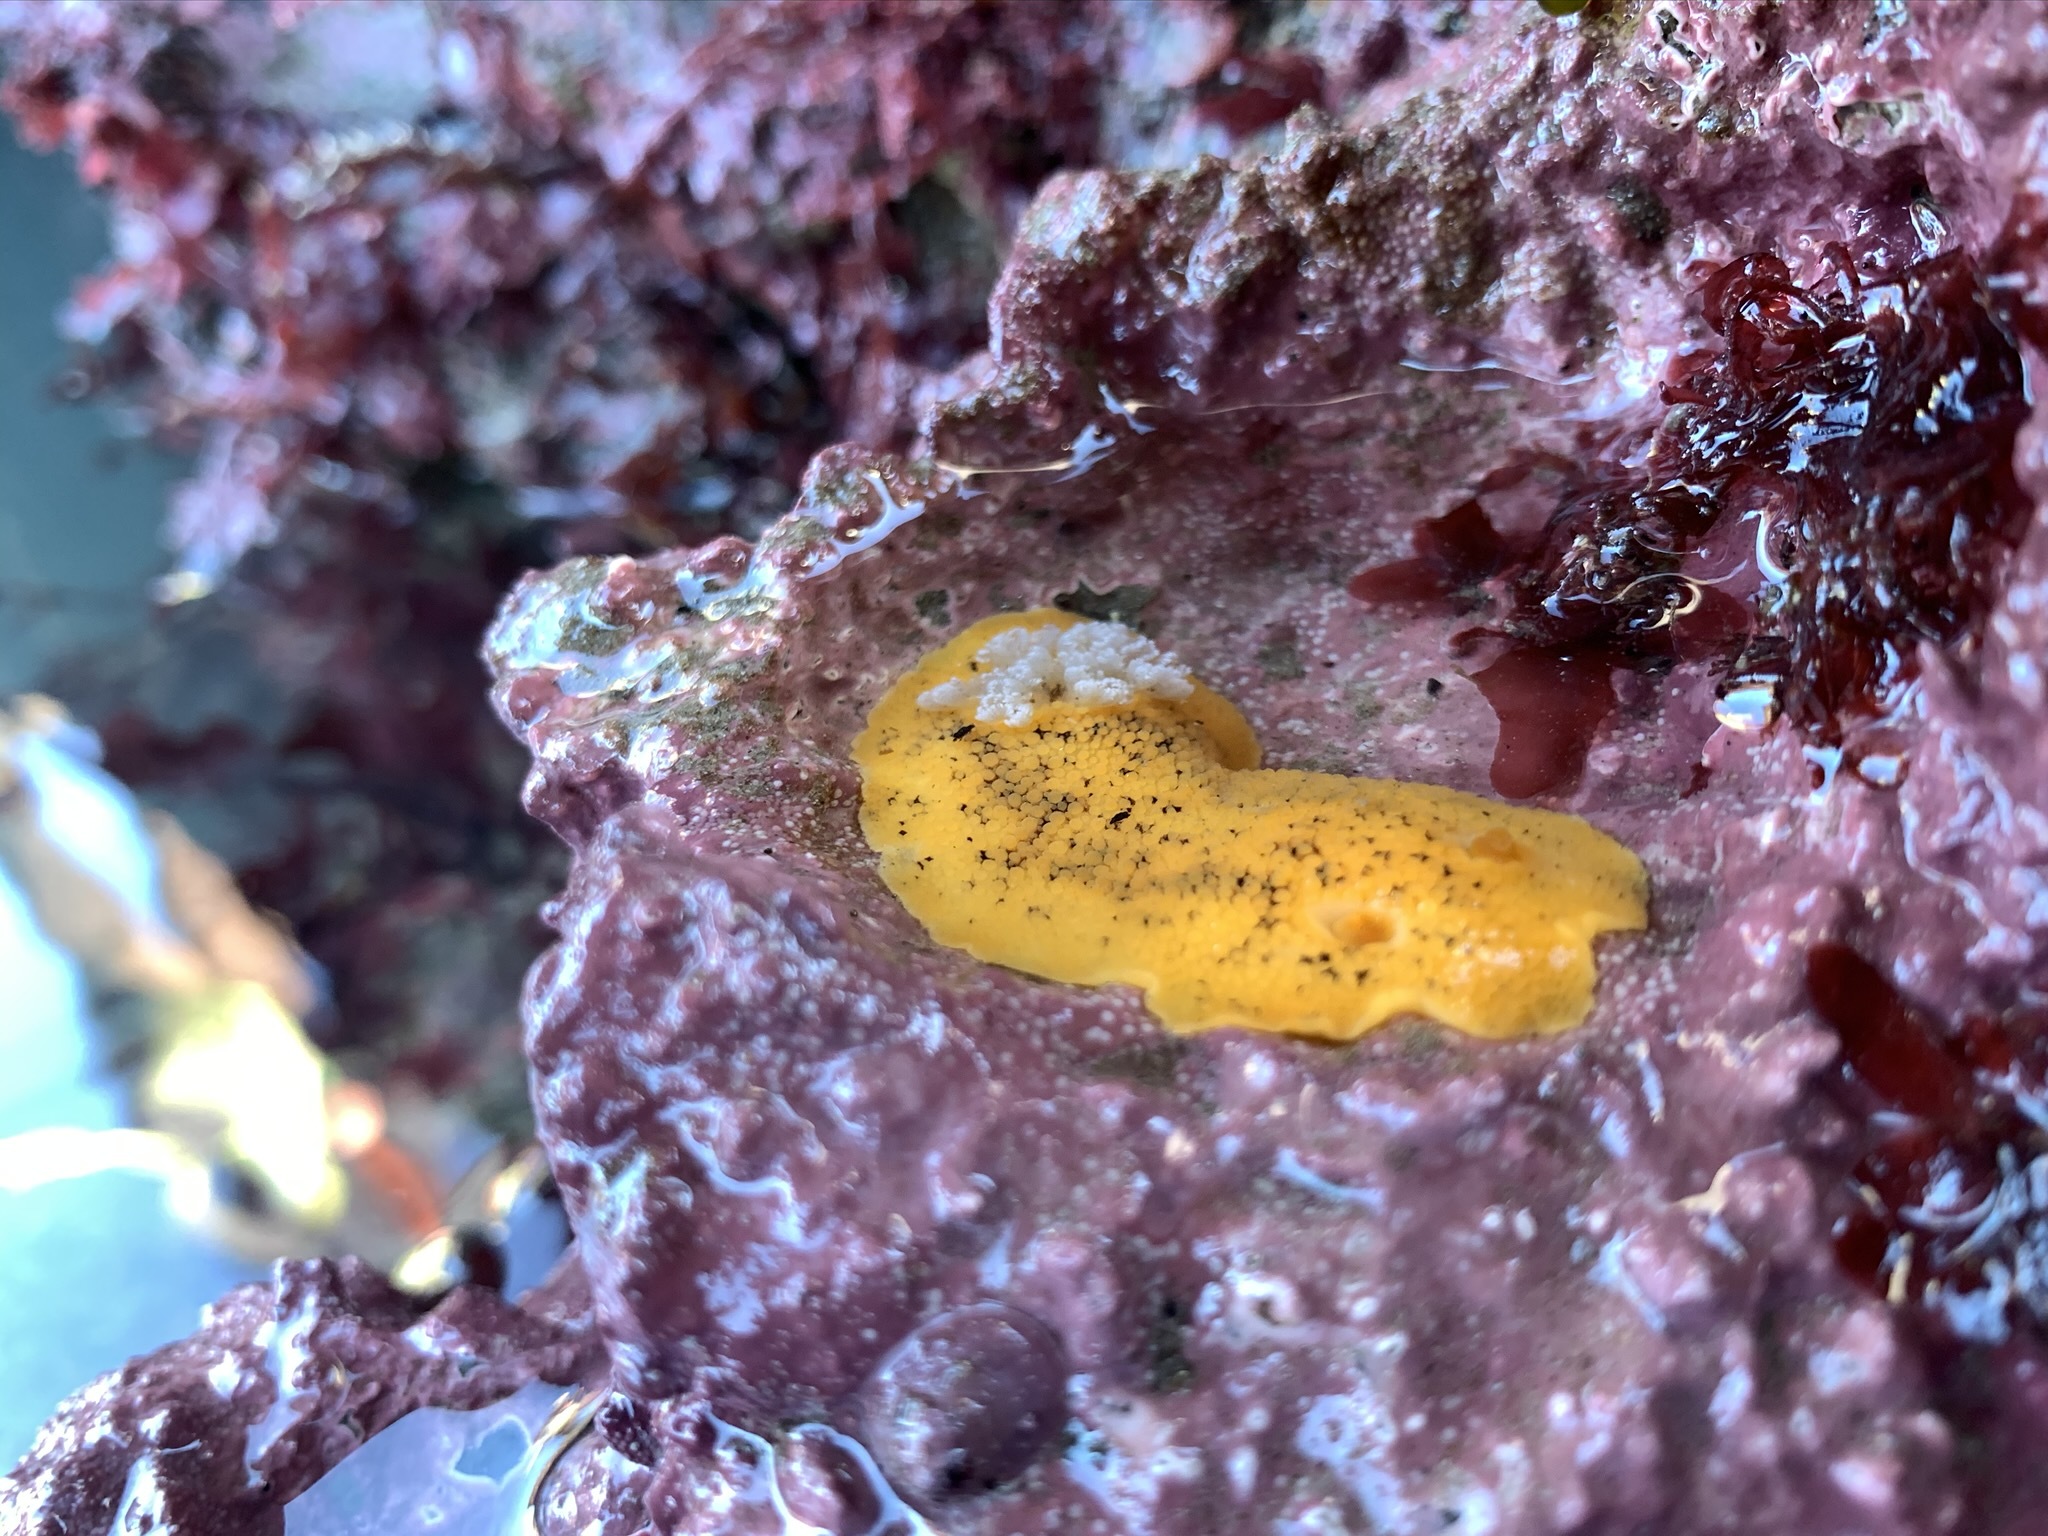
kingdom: Animalia
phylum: Mollusca
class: Gastropoda
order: Nudibranchia
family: Discodorididae
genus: Peltodoris
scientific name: Peltodoris nobilis
